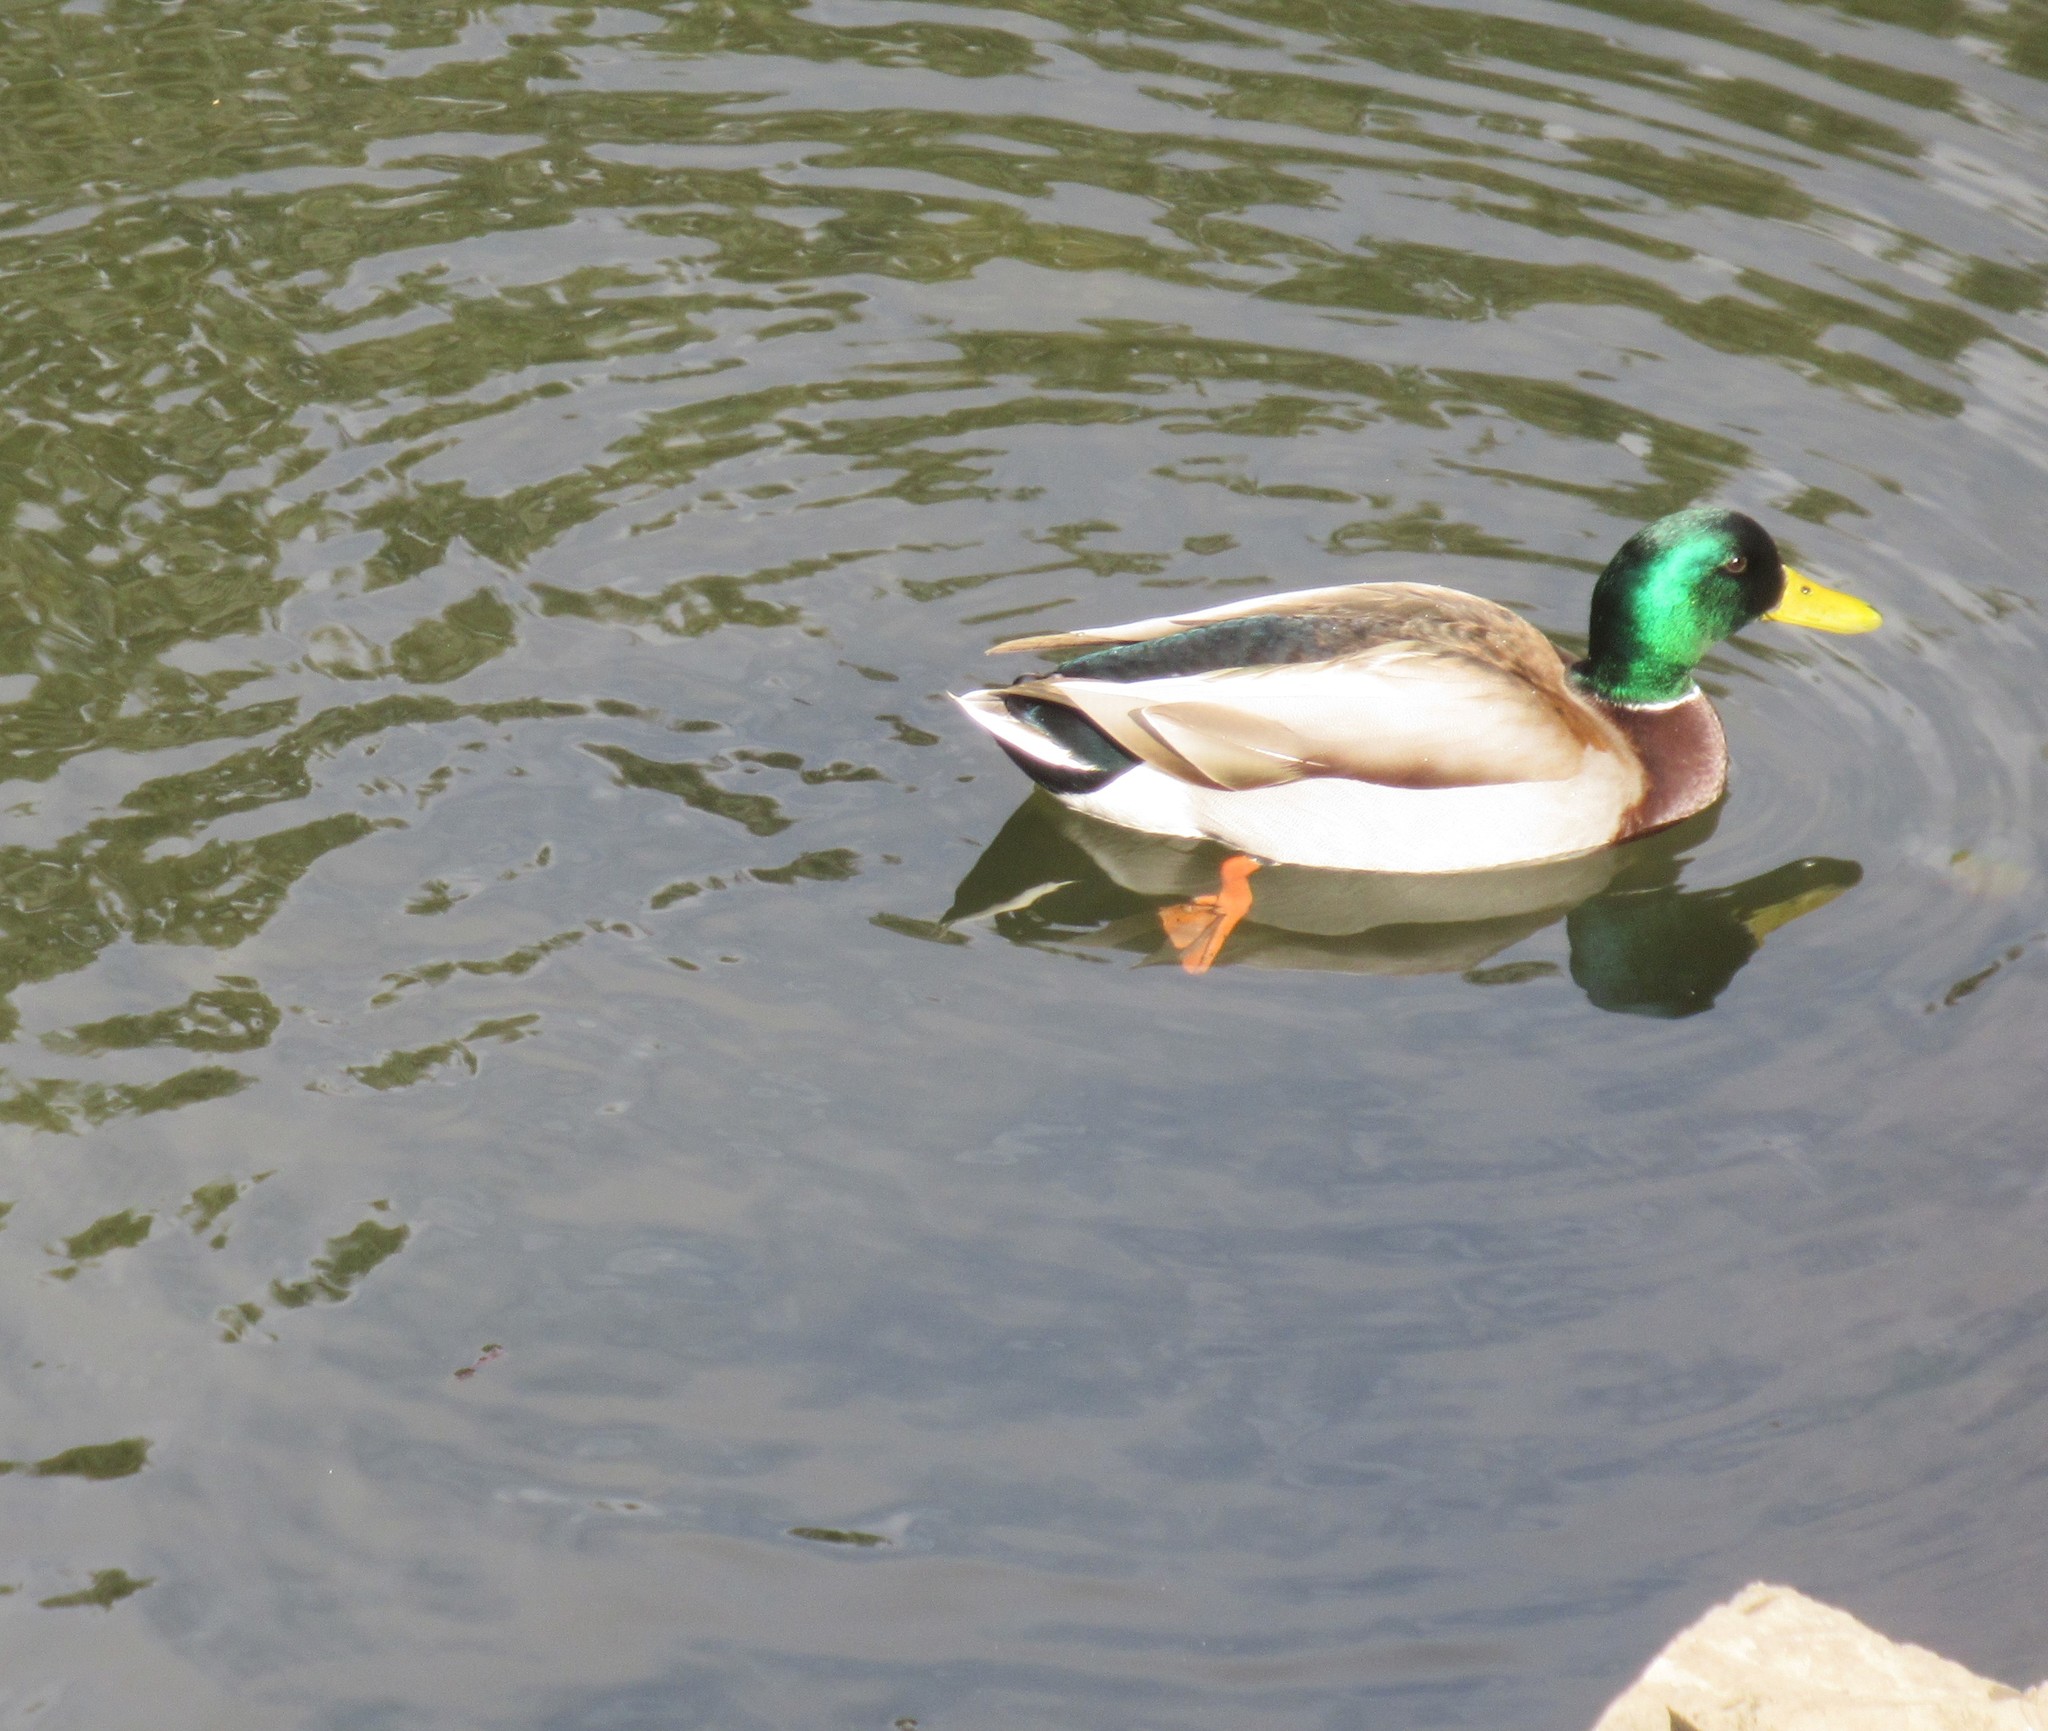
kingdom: Animalia
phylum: Chordata
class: Aves
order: Anseriformes
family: Anatidae
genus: Anas
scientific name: Anas platyrhynchos
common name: Mallard
